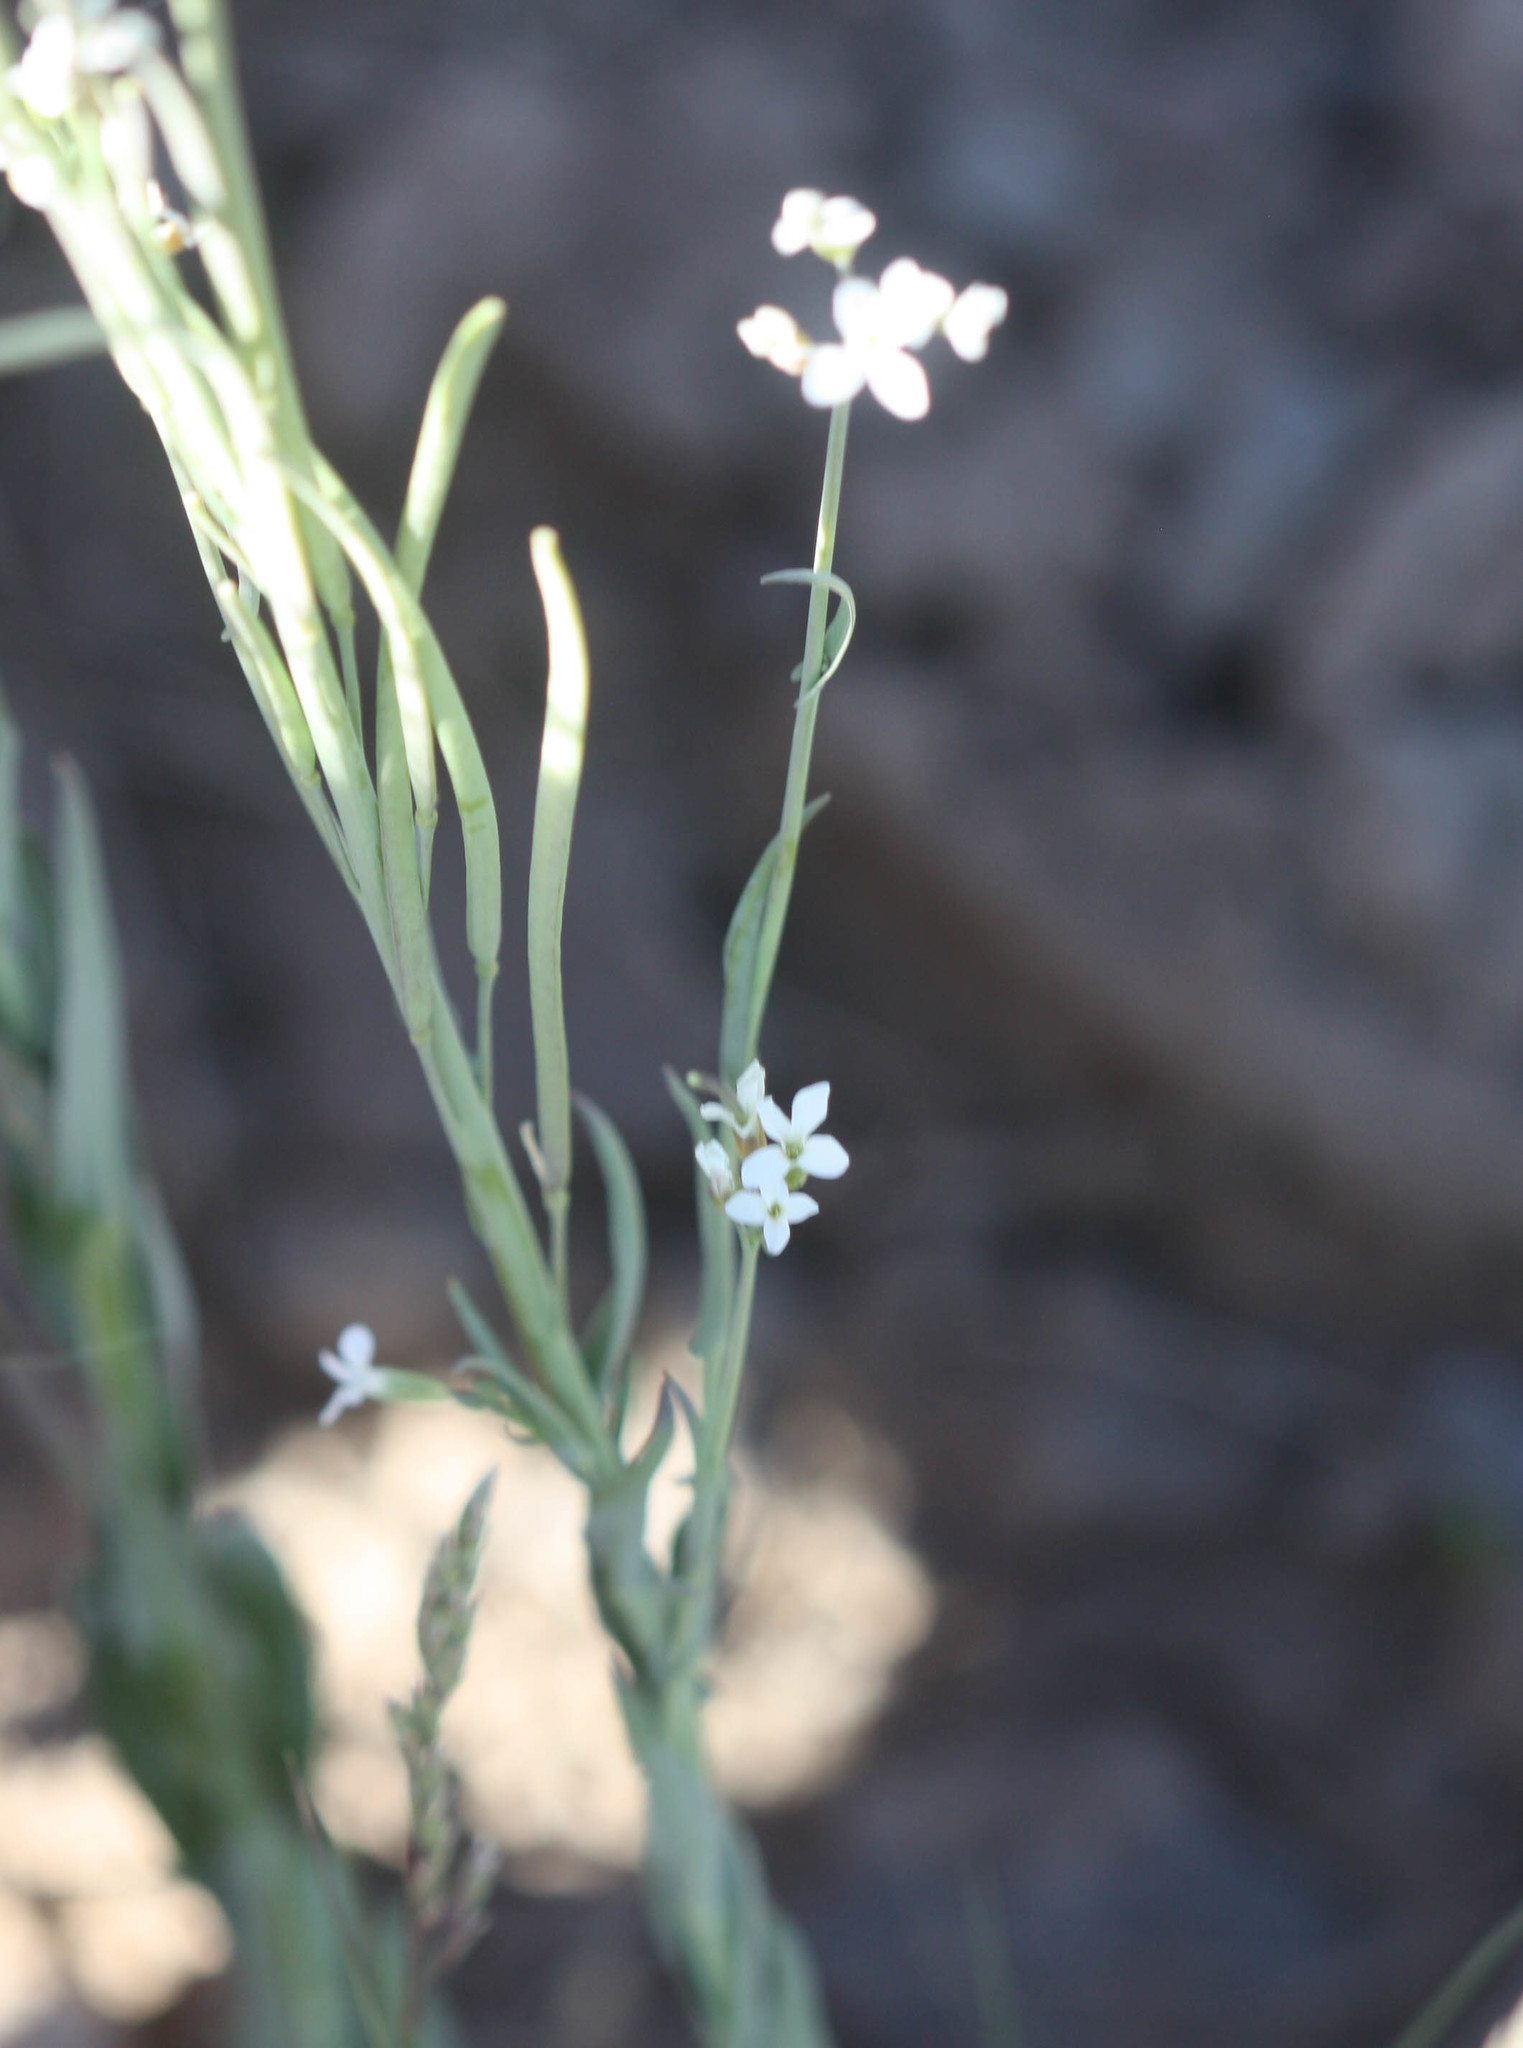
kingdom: Plantae
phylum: Tracheophyta
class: Magnoliopsida
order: Brassicales
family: Brassicaceae
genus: Boechera
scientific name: Boechera stricta
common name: Canadian rockcress
